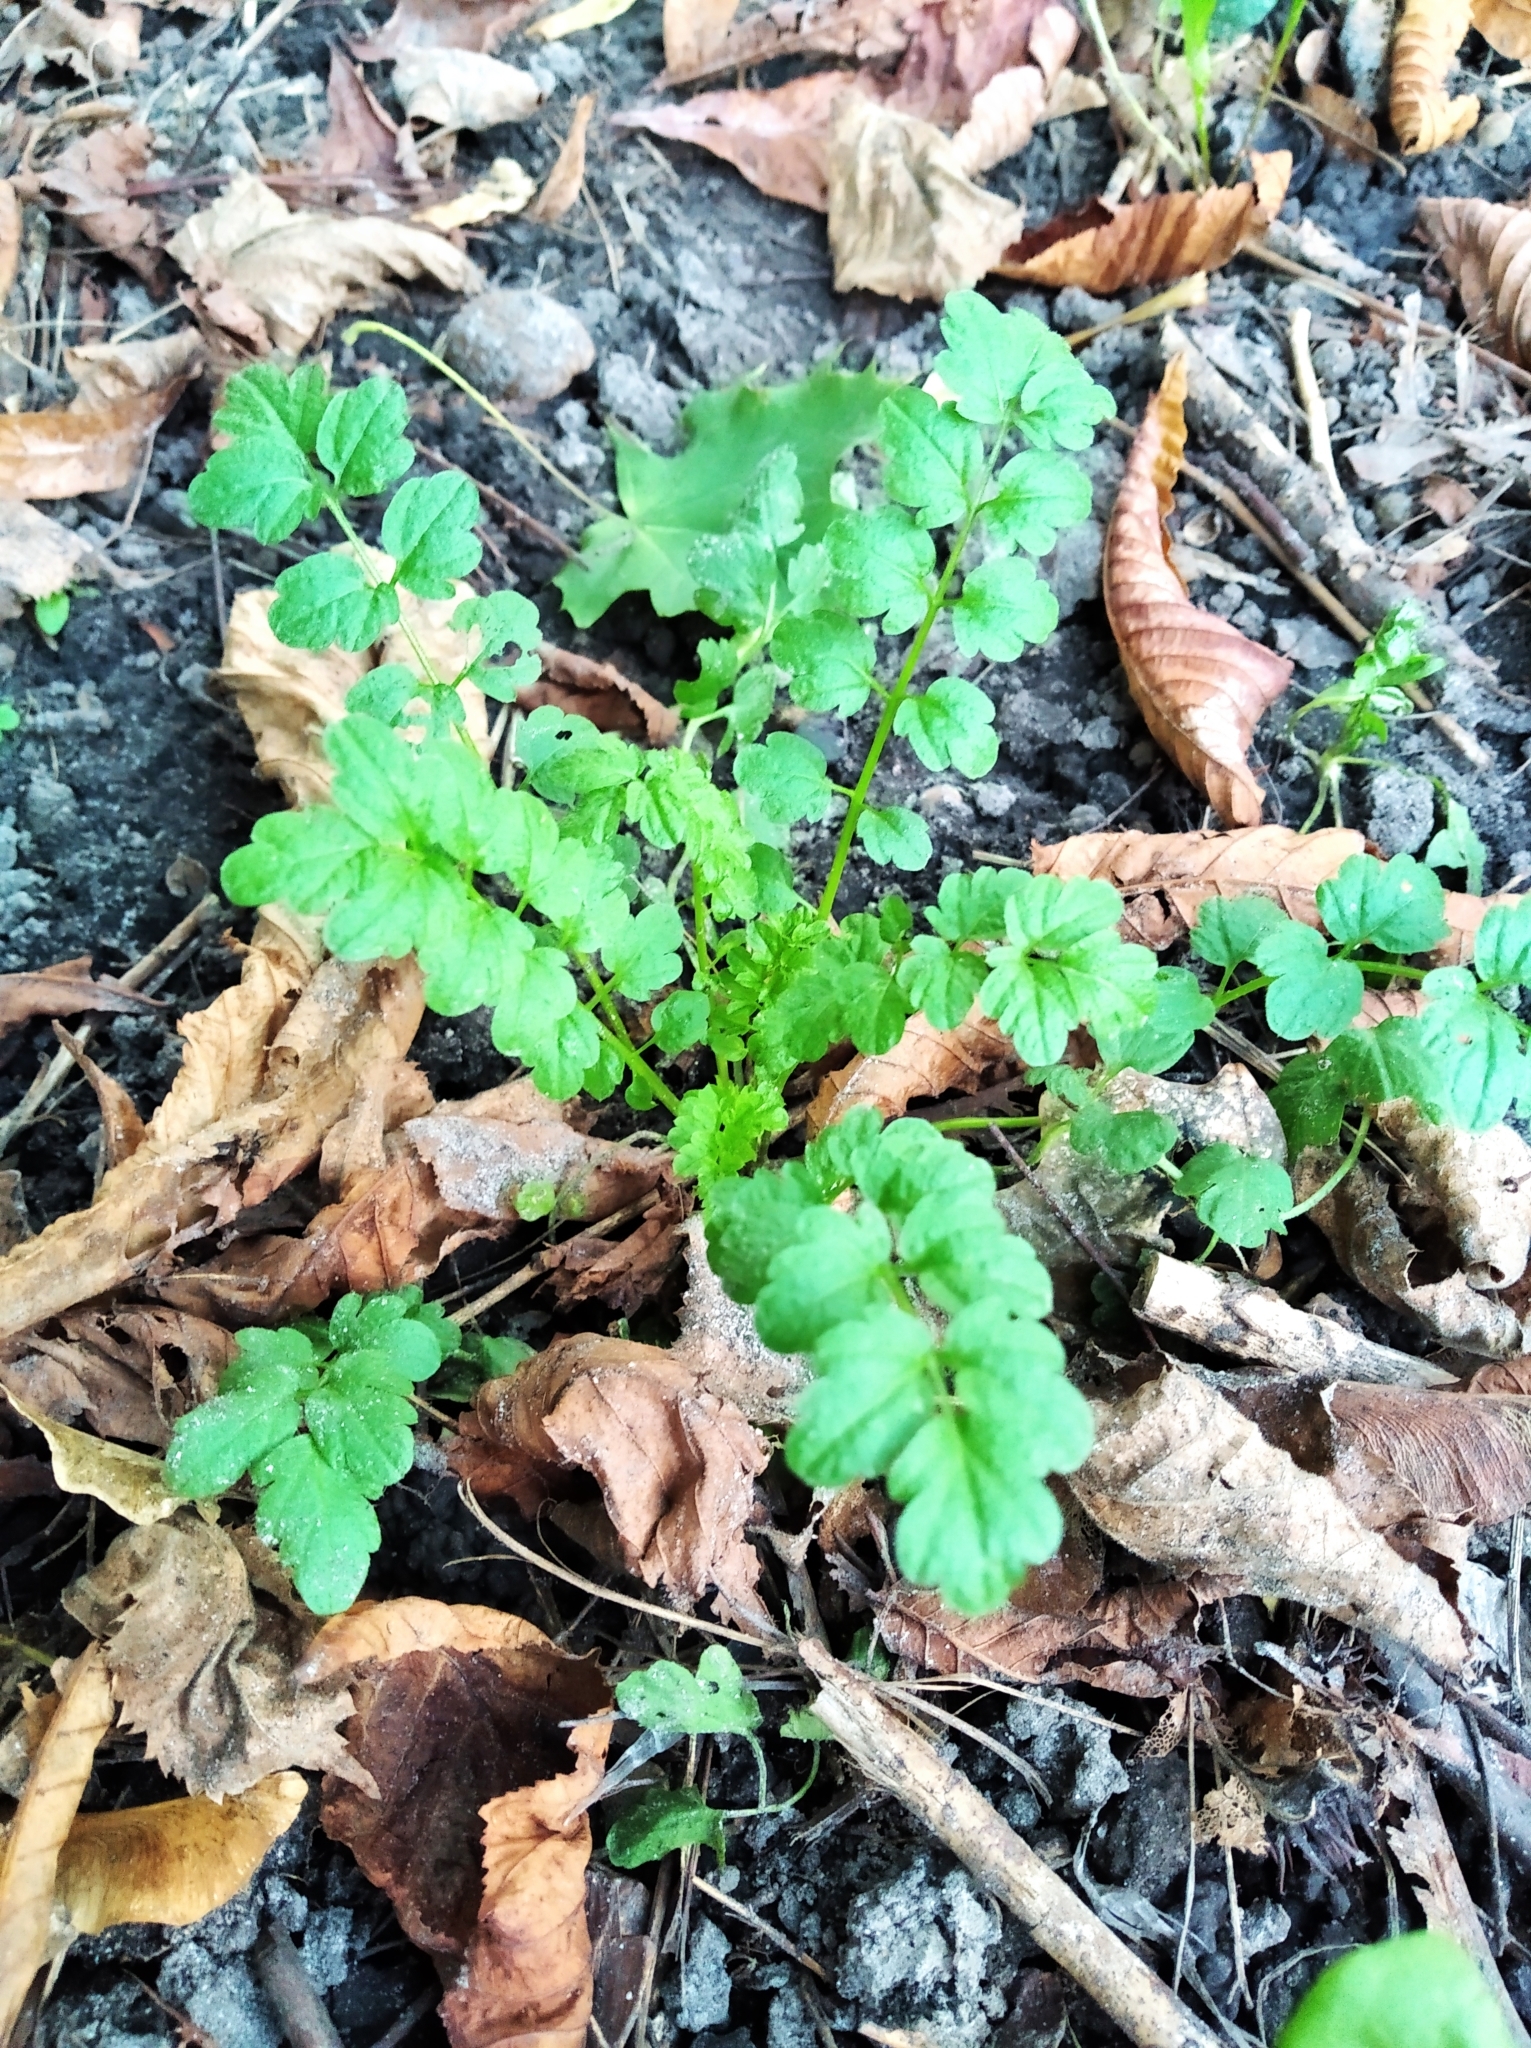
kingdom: Plantae
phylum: Tracheophyta
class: Magnoliopsida
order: Brassicales
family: Brassicaceae
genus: Cardamine
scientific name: Cardamine impatiens
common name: Narrow-leaved bitter-cress
